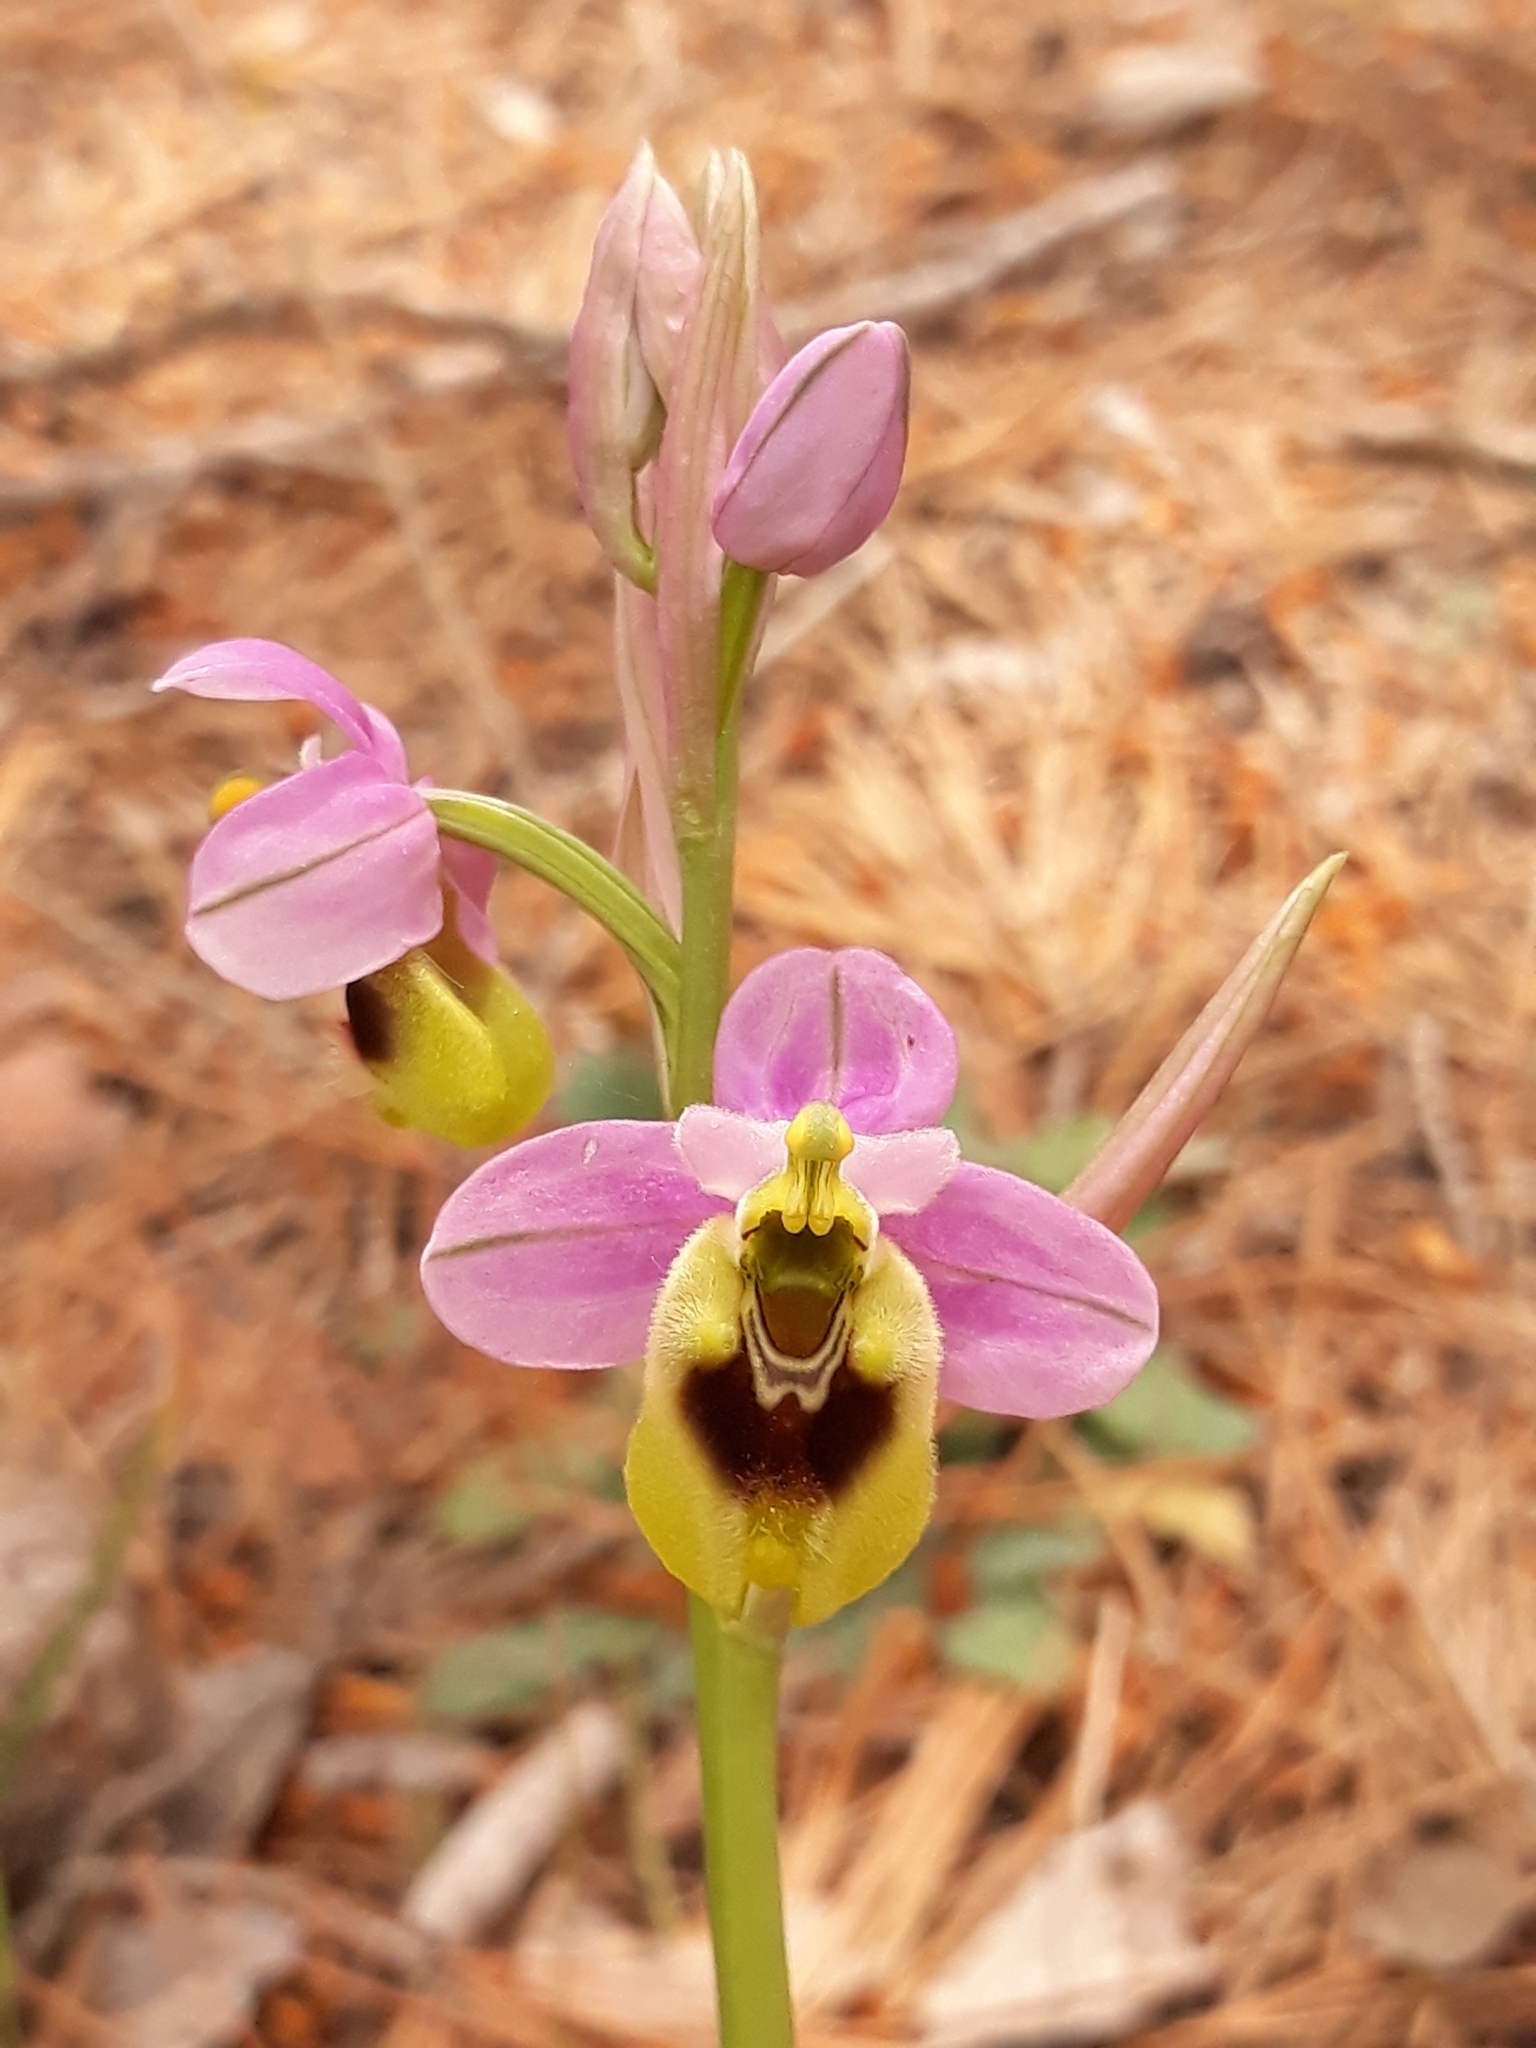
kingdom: Plantae
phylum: Tracheophyta
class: Liliopsida
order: Asparagales
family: Orchidaceae
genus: Ophrys
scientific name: Ophrys tenthredinifera
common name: Sawfly orchid
